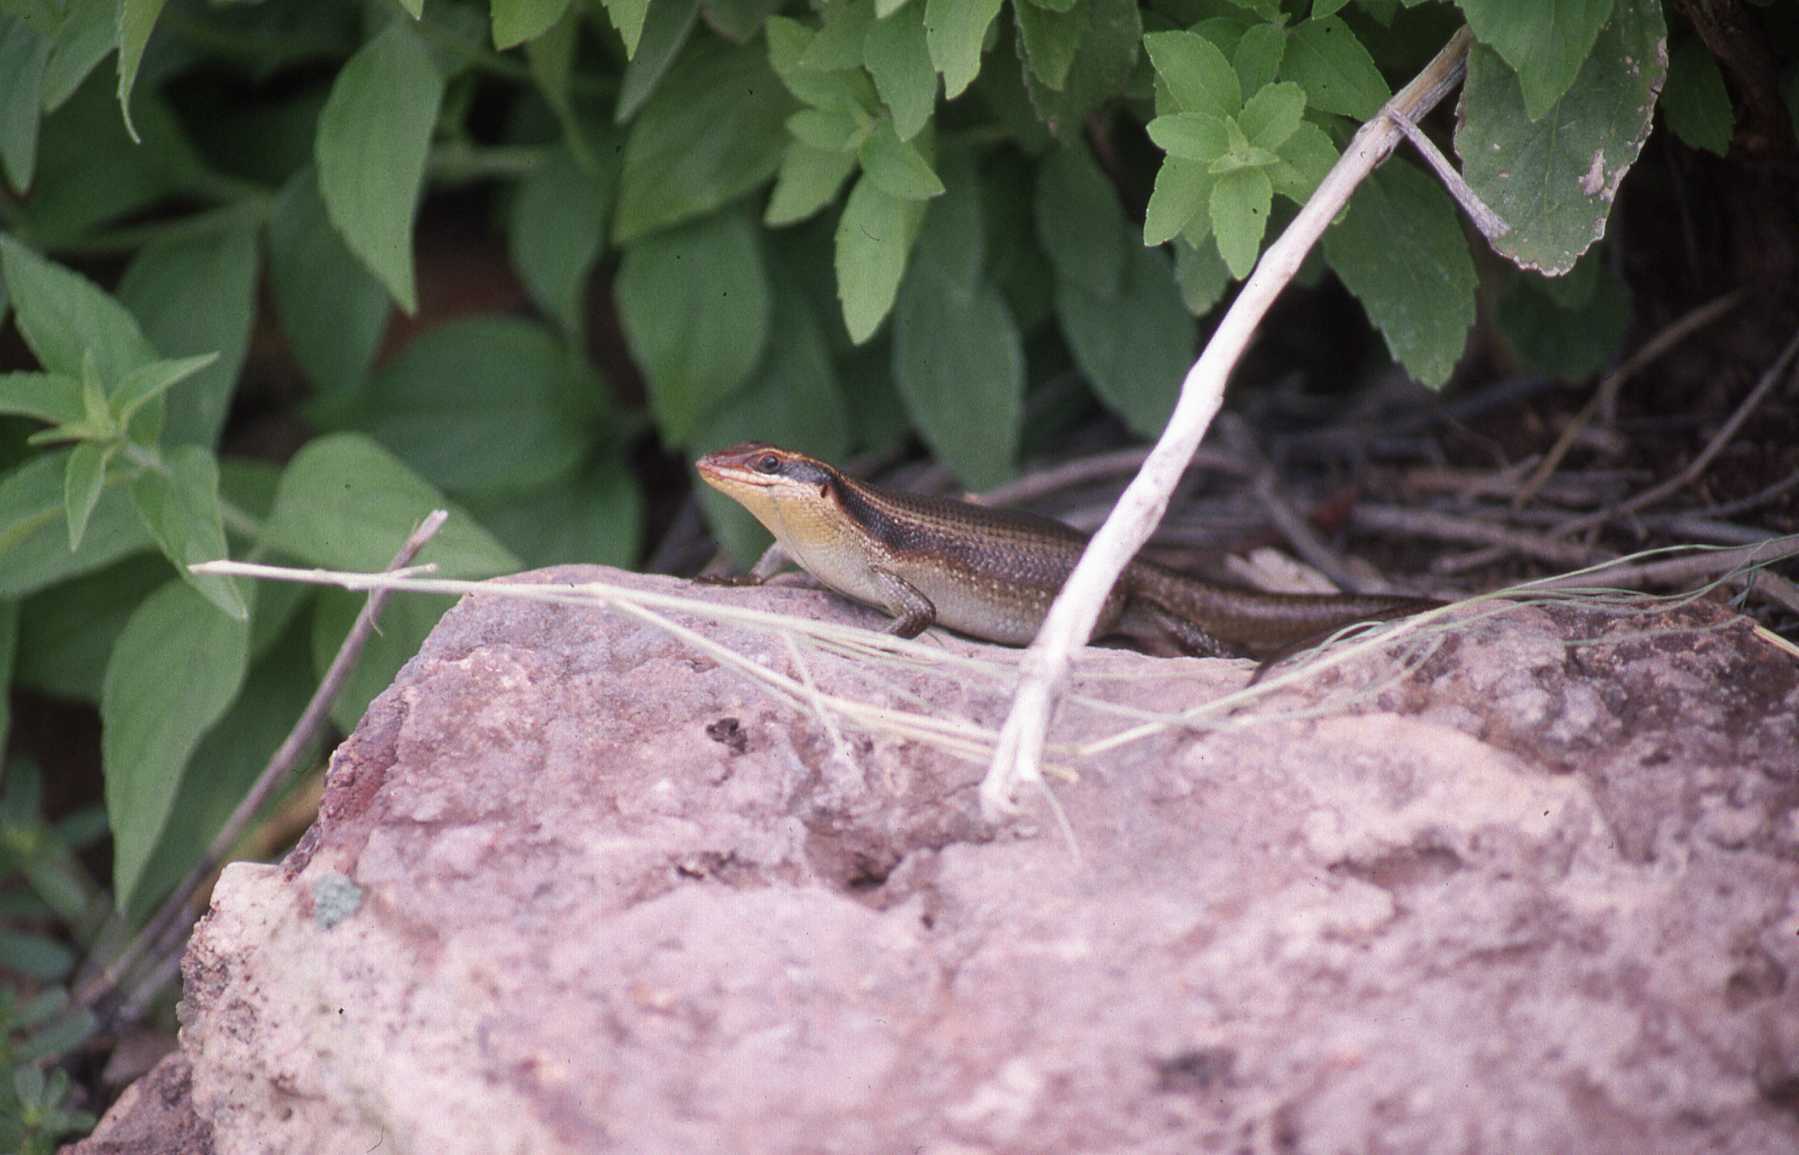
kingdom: Animalia
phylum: Chordata
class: Squamata
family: Scincidae
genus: Trachylepis
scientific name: Trachylepis wahlbergii
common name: Wahlberg’s striped skink
